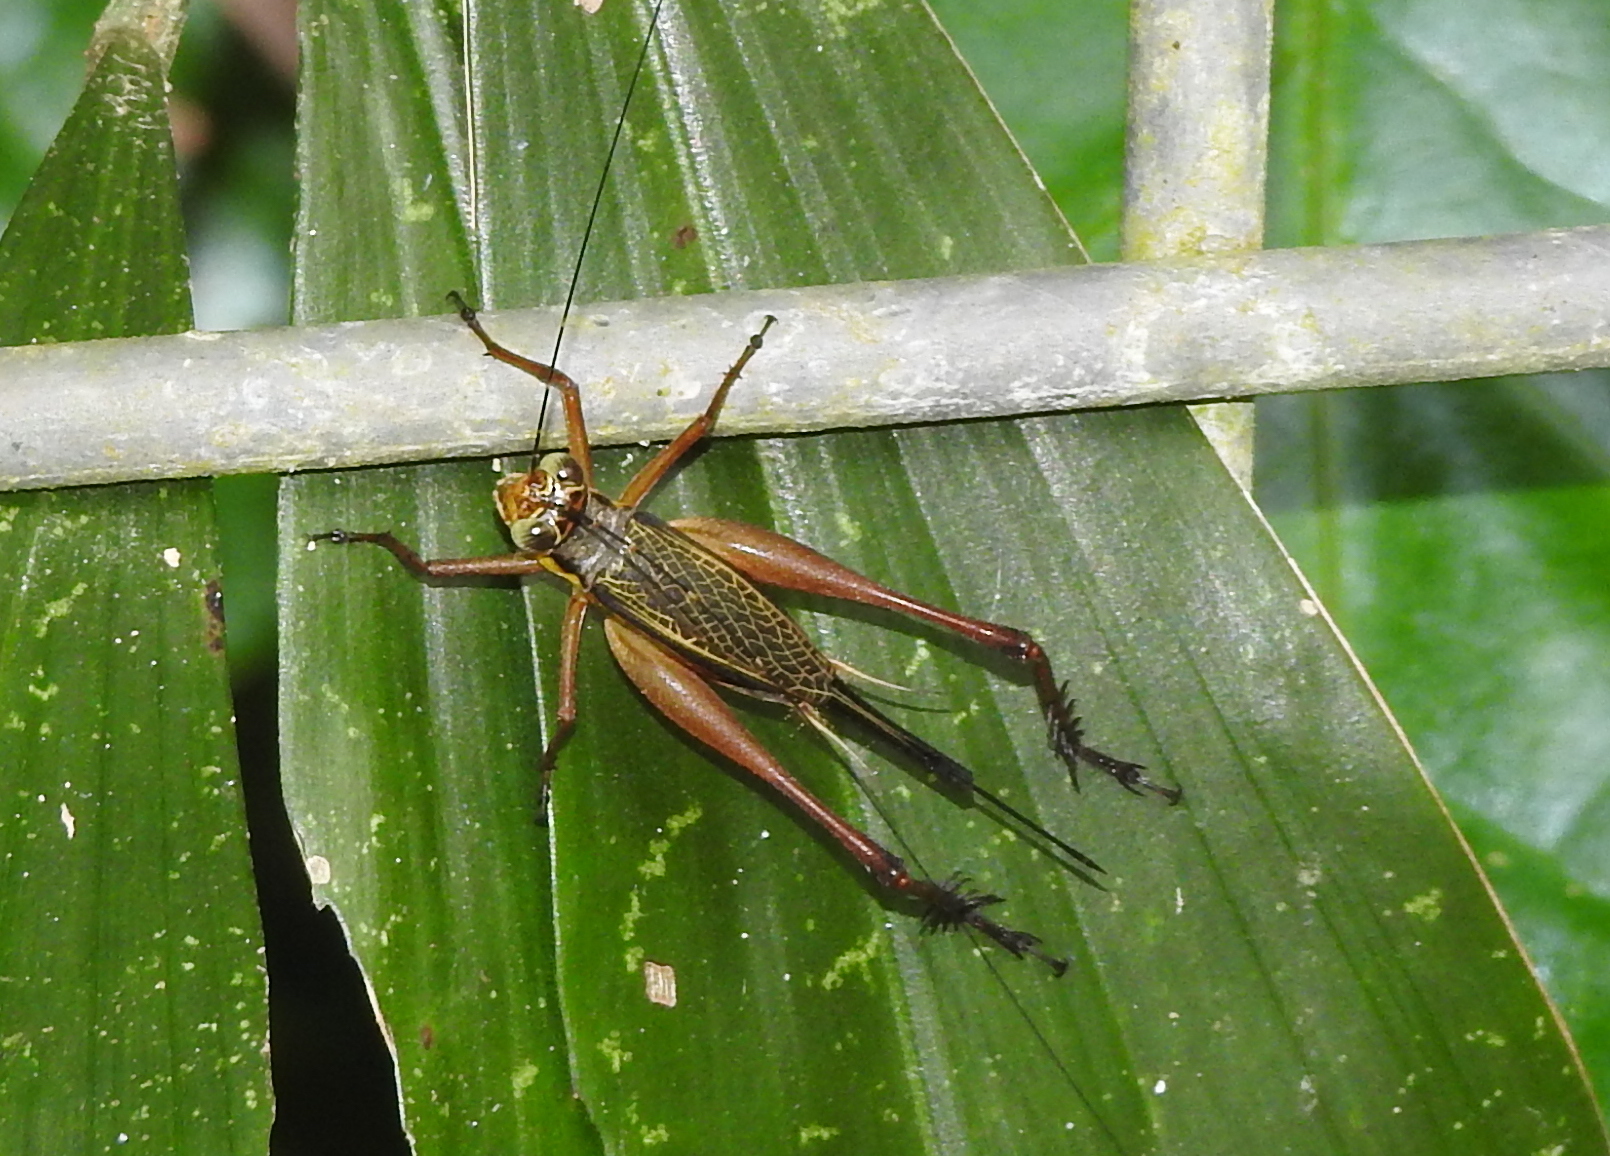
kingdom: Animalia
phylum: Arthropoda
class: Insecta
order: Orthoptera
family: Gryllidae
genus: Nisitrus
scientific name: Nisitrus malaya
